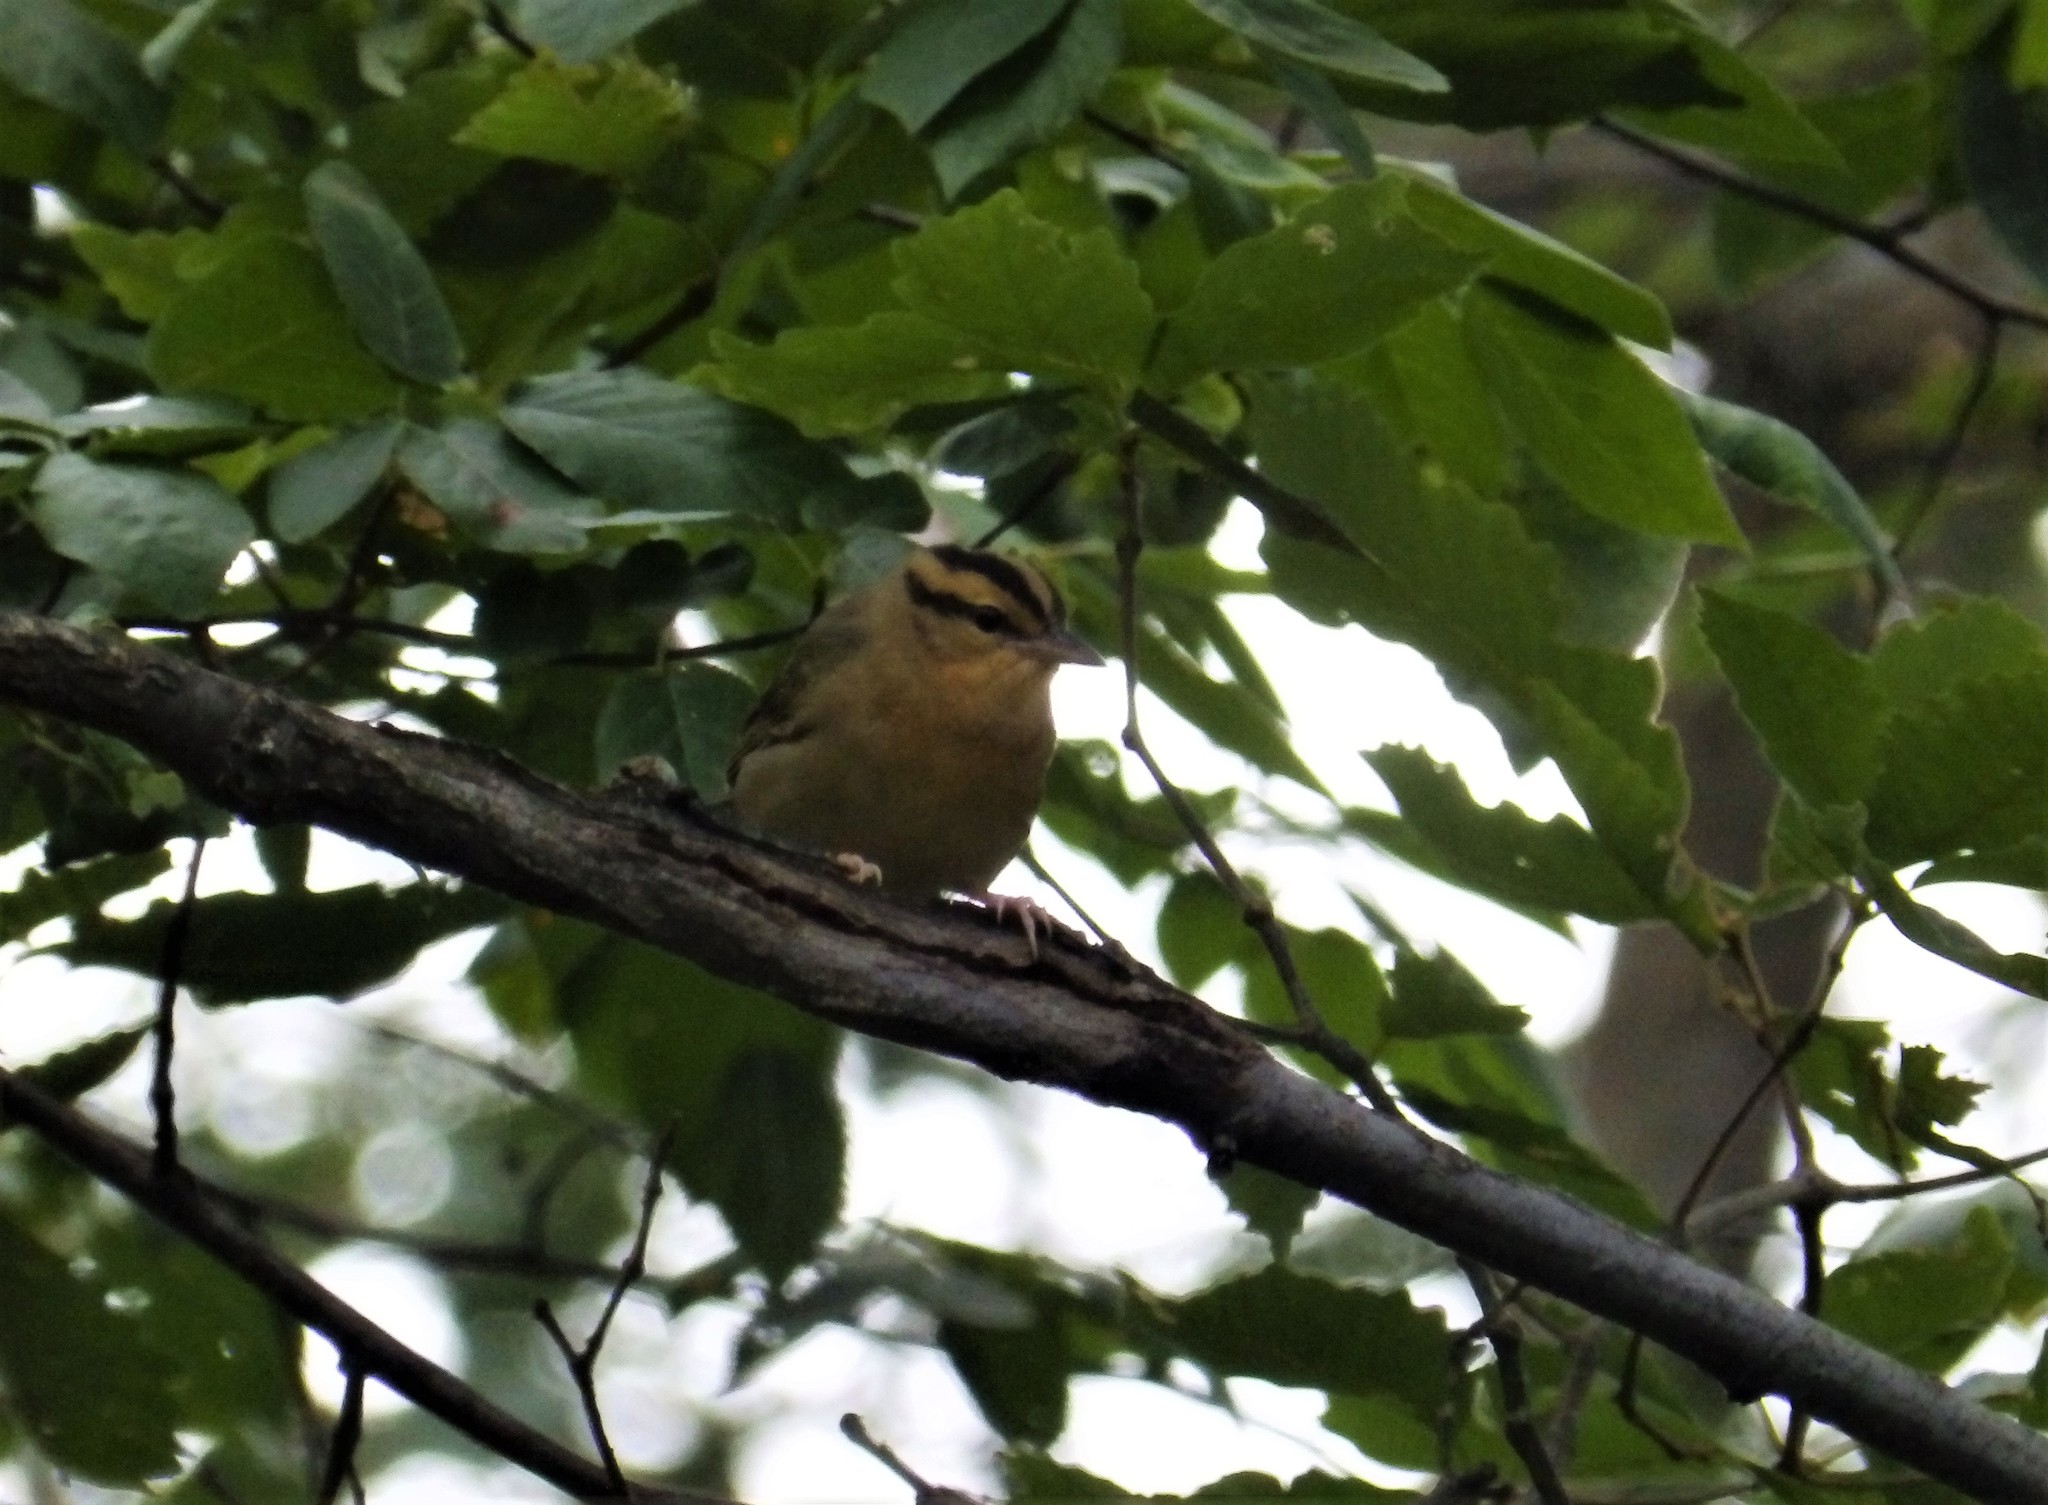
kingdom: Animalia
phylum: Chordata
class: Aves
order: Passeriformes
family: Parulidae
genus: Helmitheros
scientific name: Helmitheros vermivorum
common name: Worm-eating warbler
